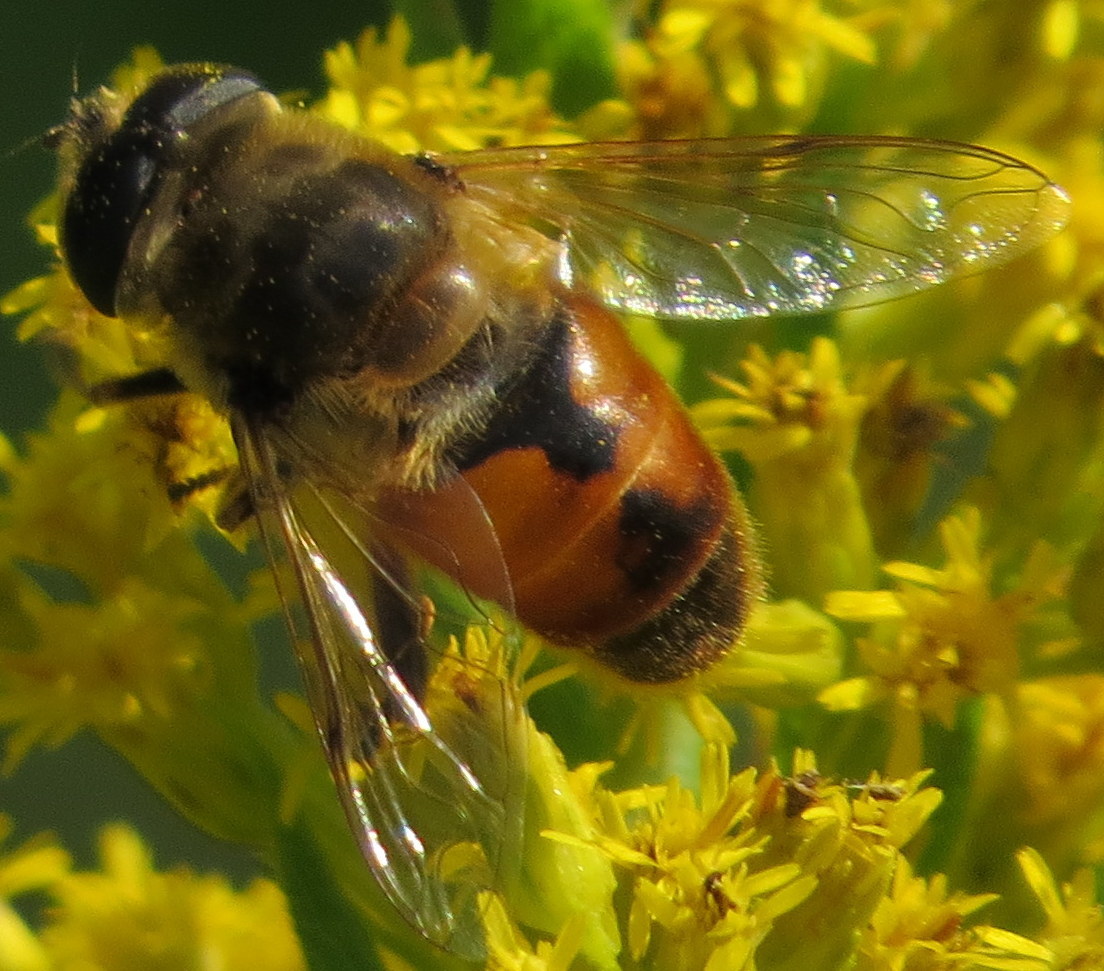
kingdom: Animalia
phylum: Arthropoda
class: Insecta
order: Diptera
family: Syrphidae
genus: Eristalis
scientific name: Eristalis tenax
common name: Drone fly
